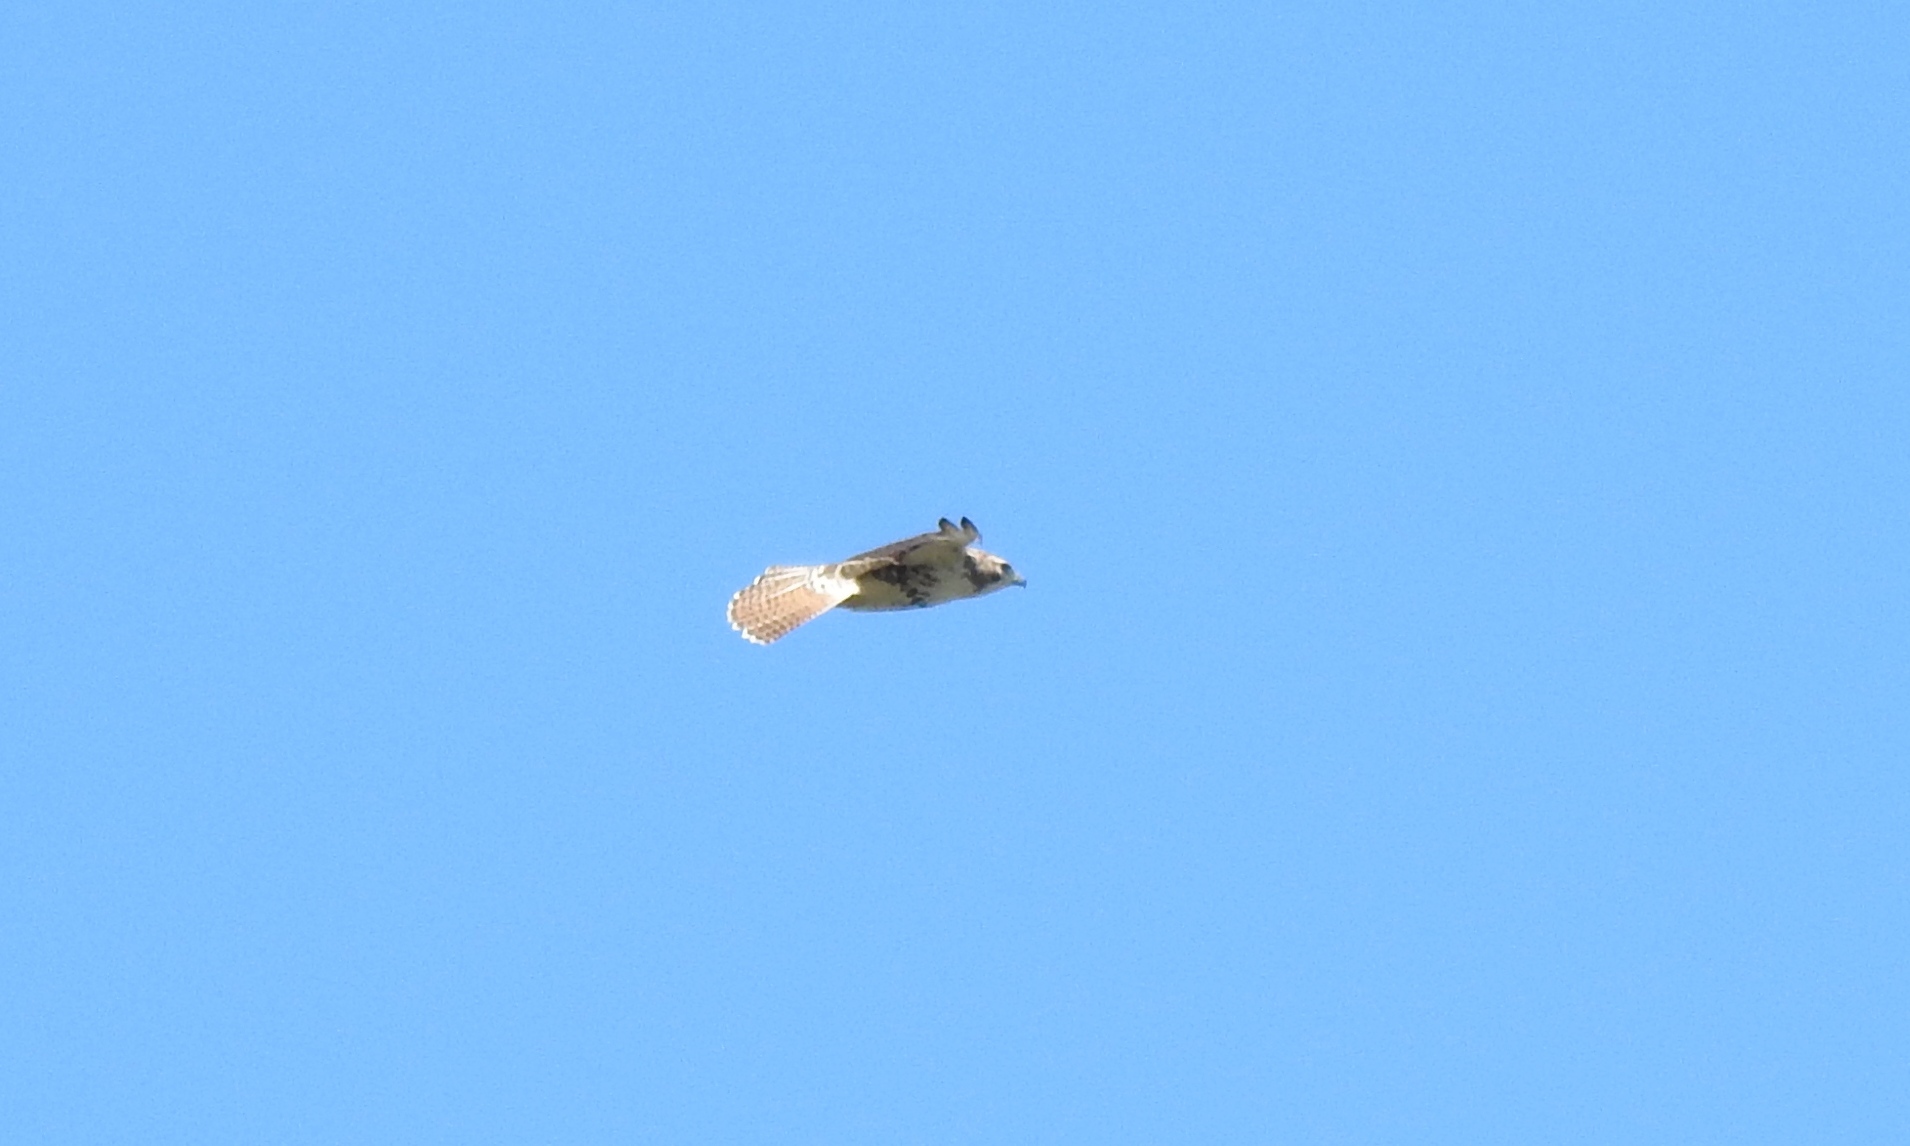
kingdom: Animalia
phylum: Chordata
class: Aves
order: Accipitriformes
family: Accipitridae
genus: Buteo
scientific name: Buteo jamaicensis
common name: Red-tailed hawk
